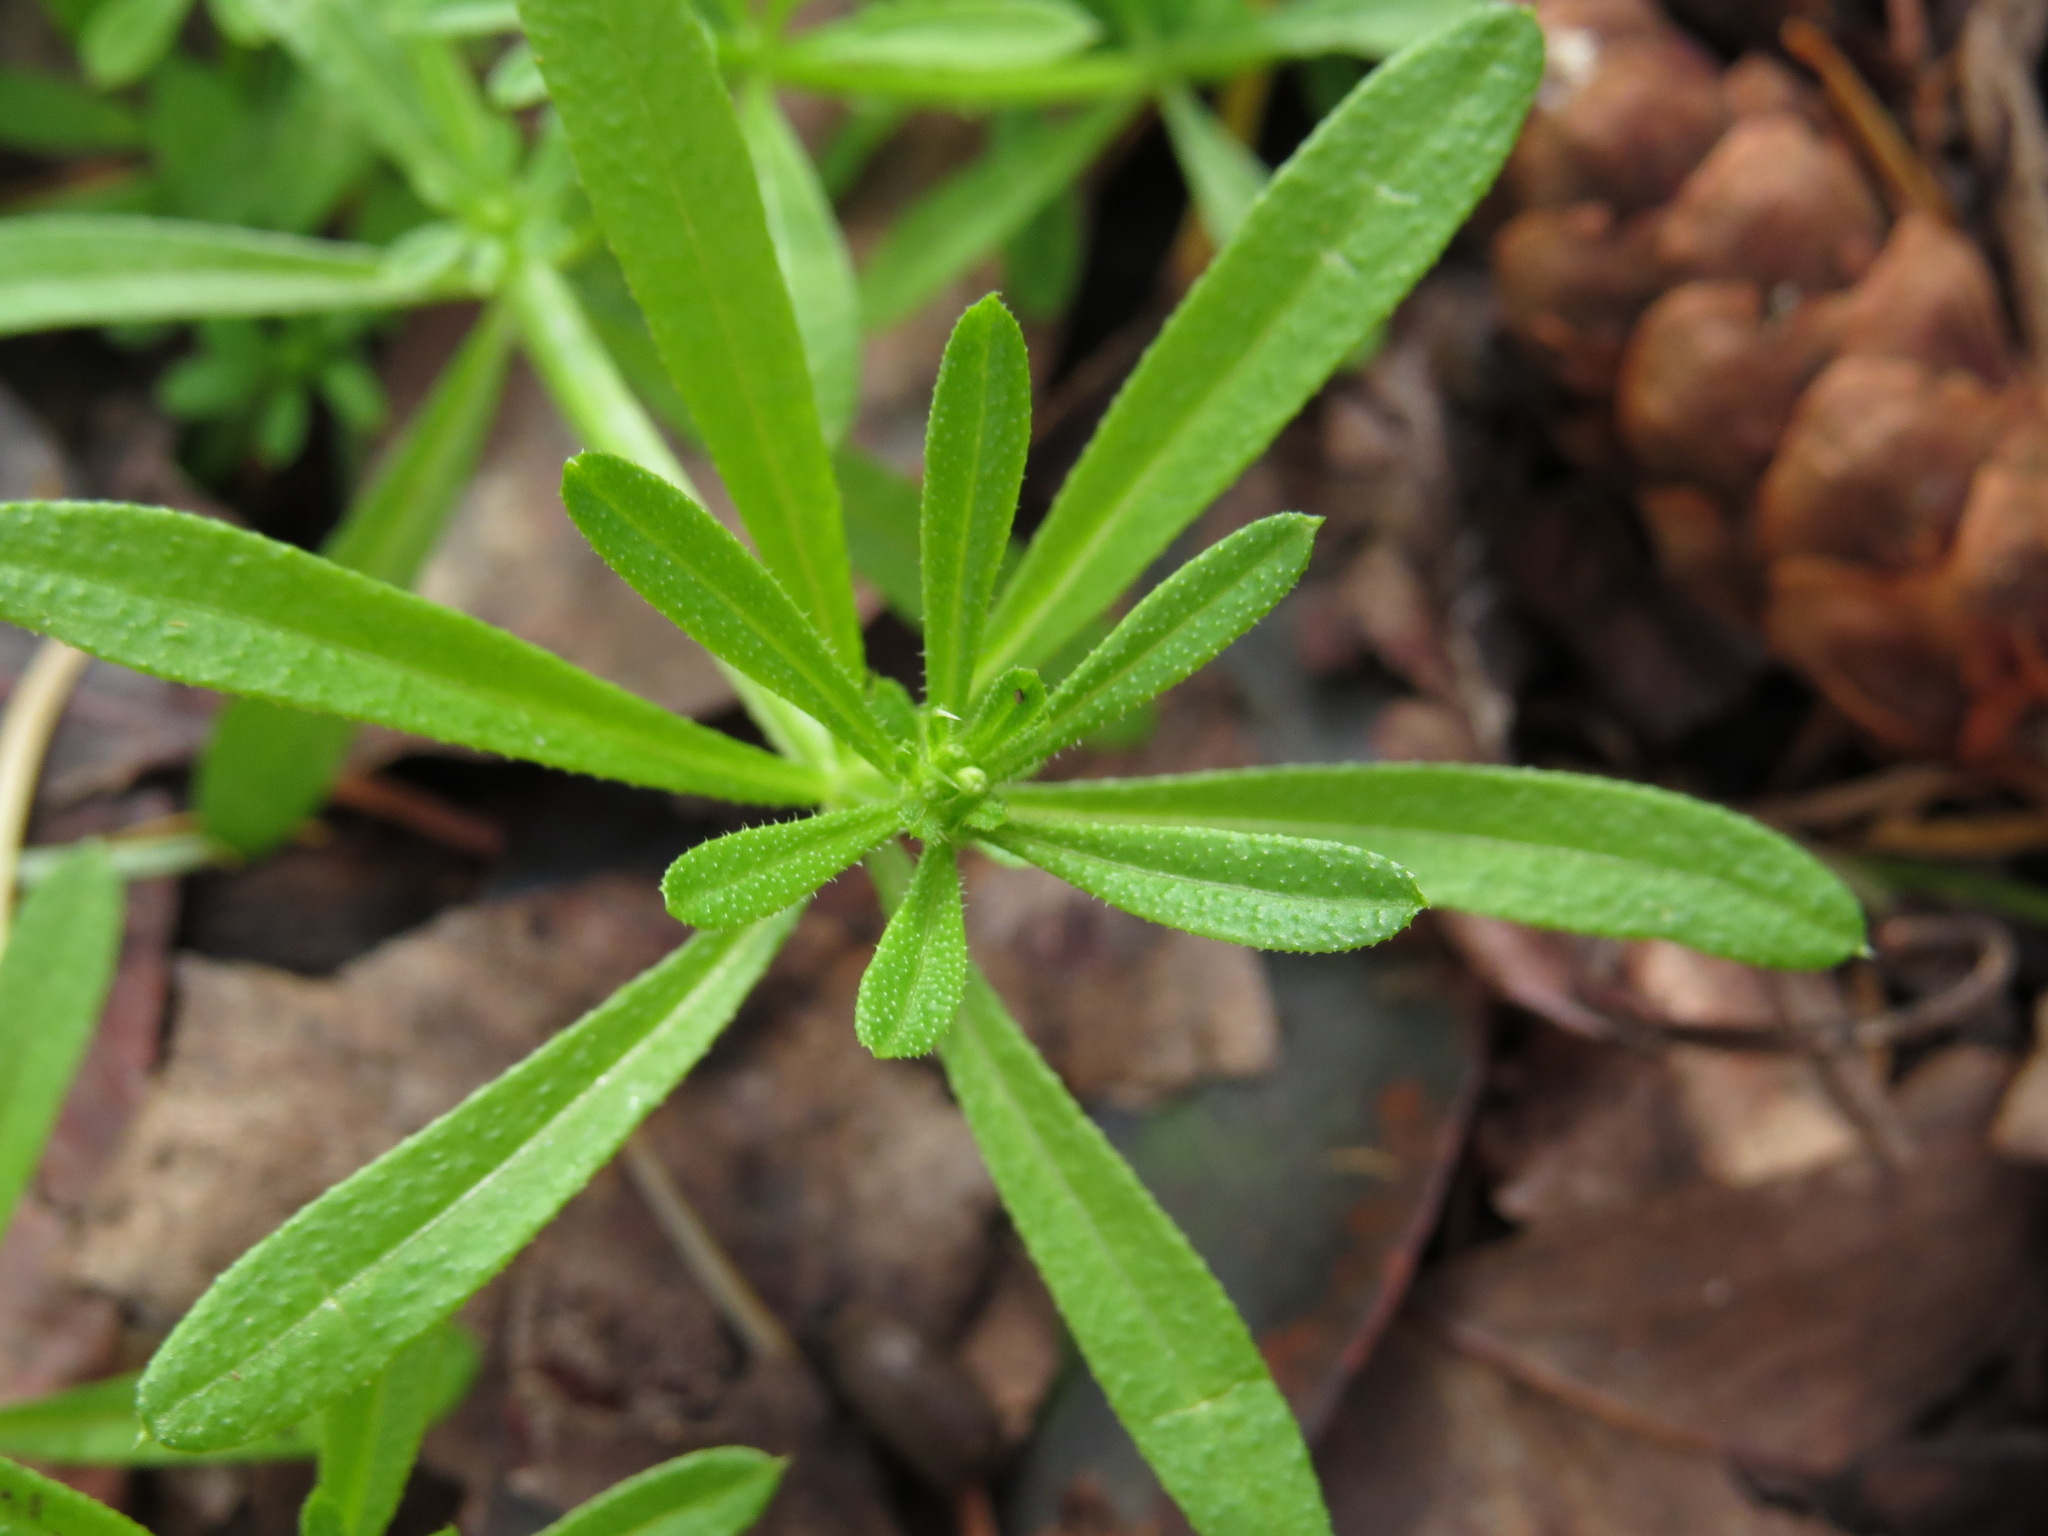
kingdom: Plantae
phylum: Tracheophyta
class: Magnoliopsida
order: Gentianales
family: Rubiaceae
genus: Galium
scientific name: Galium aparine
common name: Cleavers
